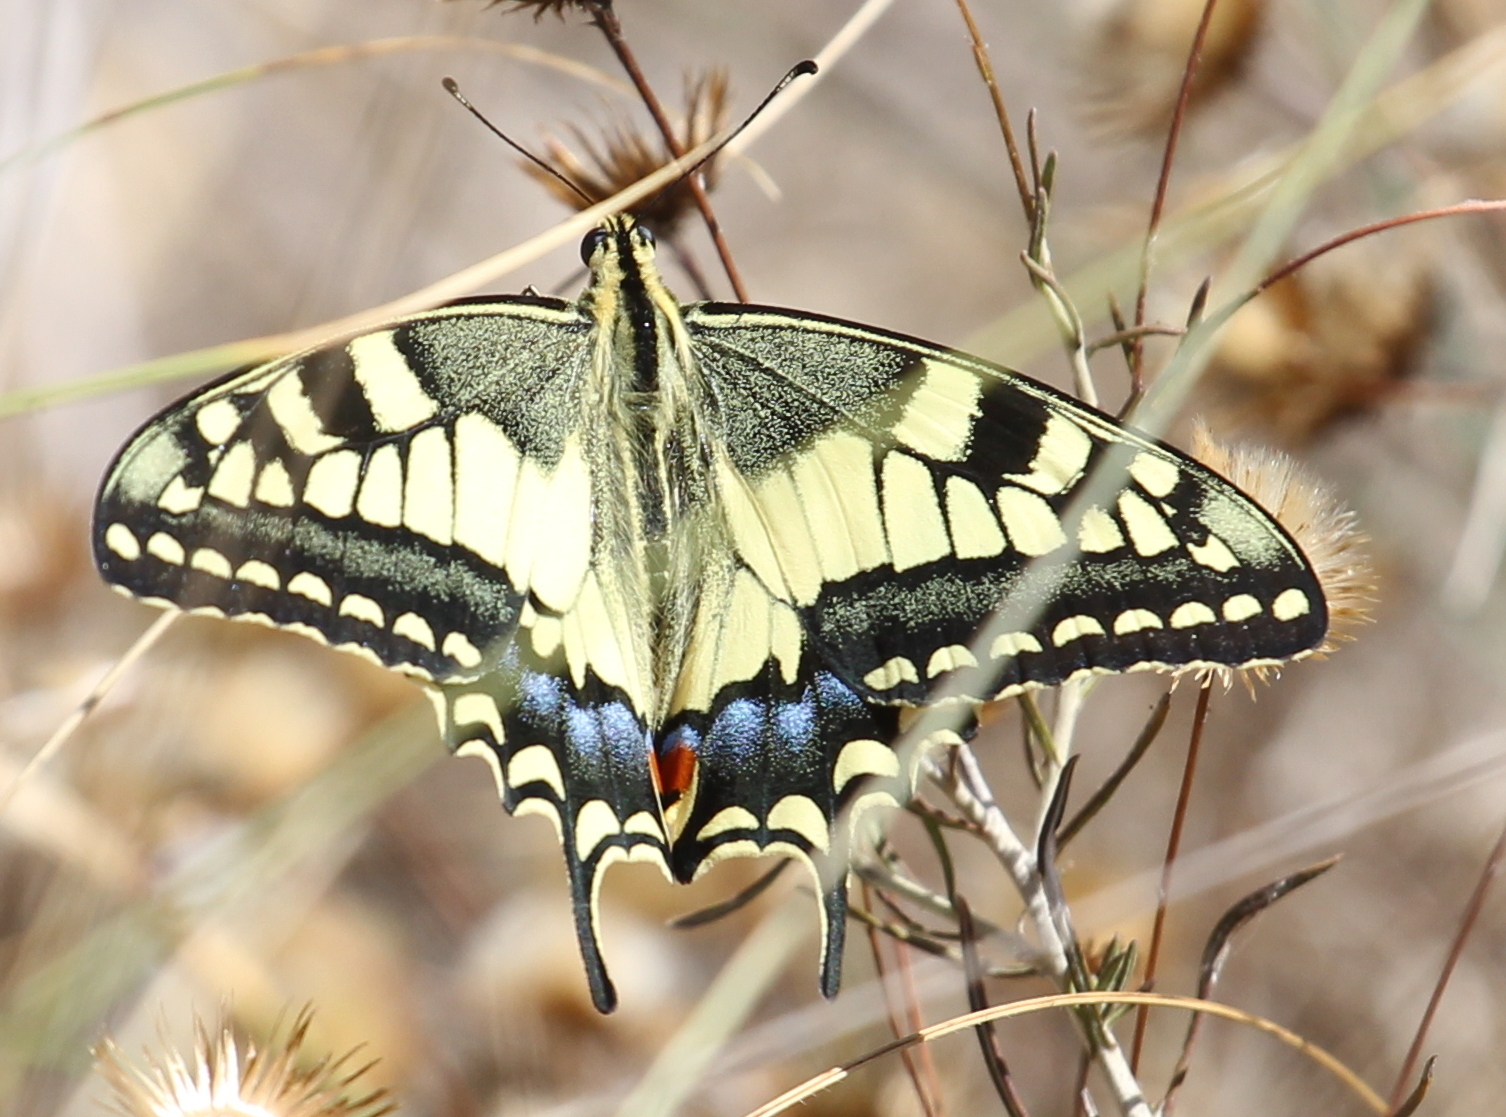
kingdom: Animalia
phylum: Arthropoda
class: Insecta
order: Lepidoptera
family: Papilionidae
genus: Papilio
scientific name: Papilio machaon
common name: Swallowtail
